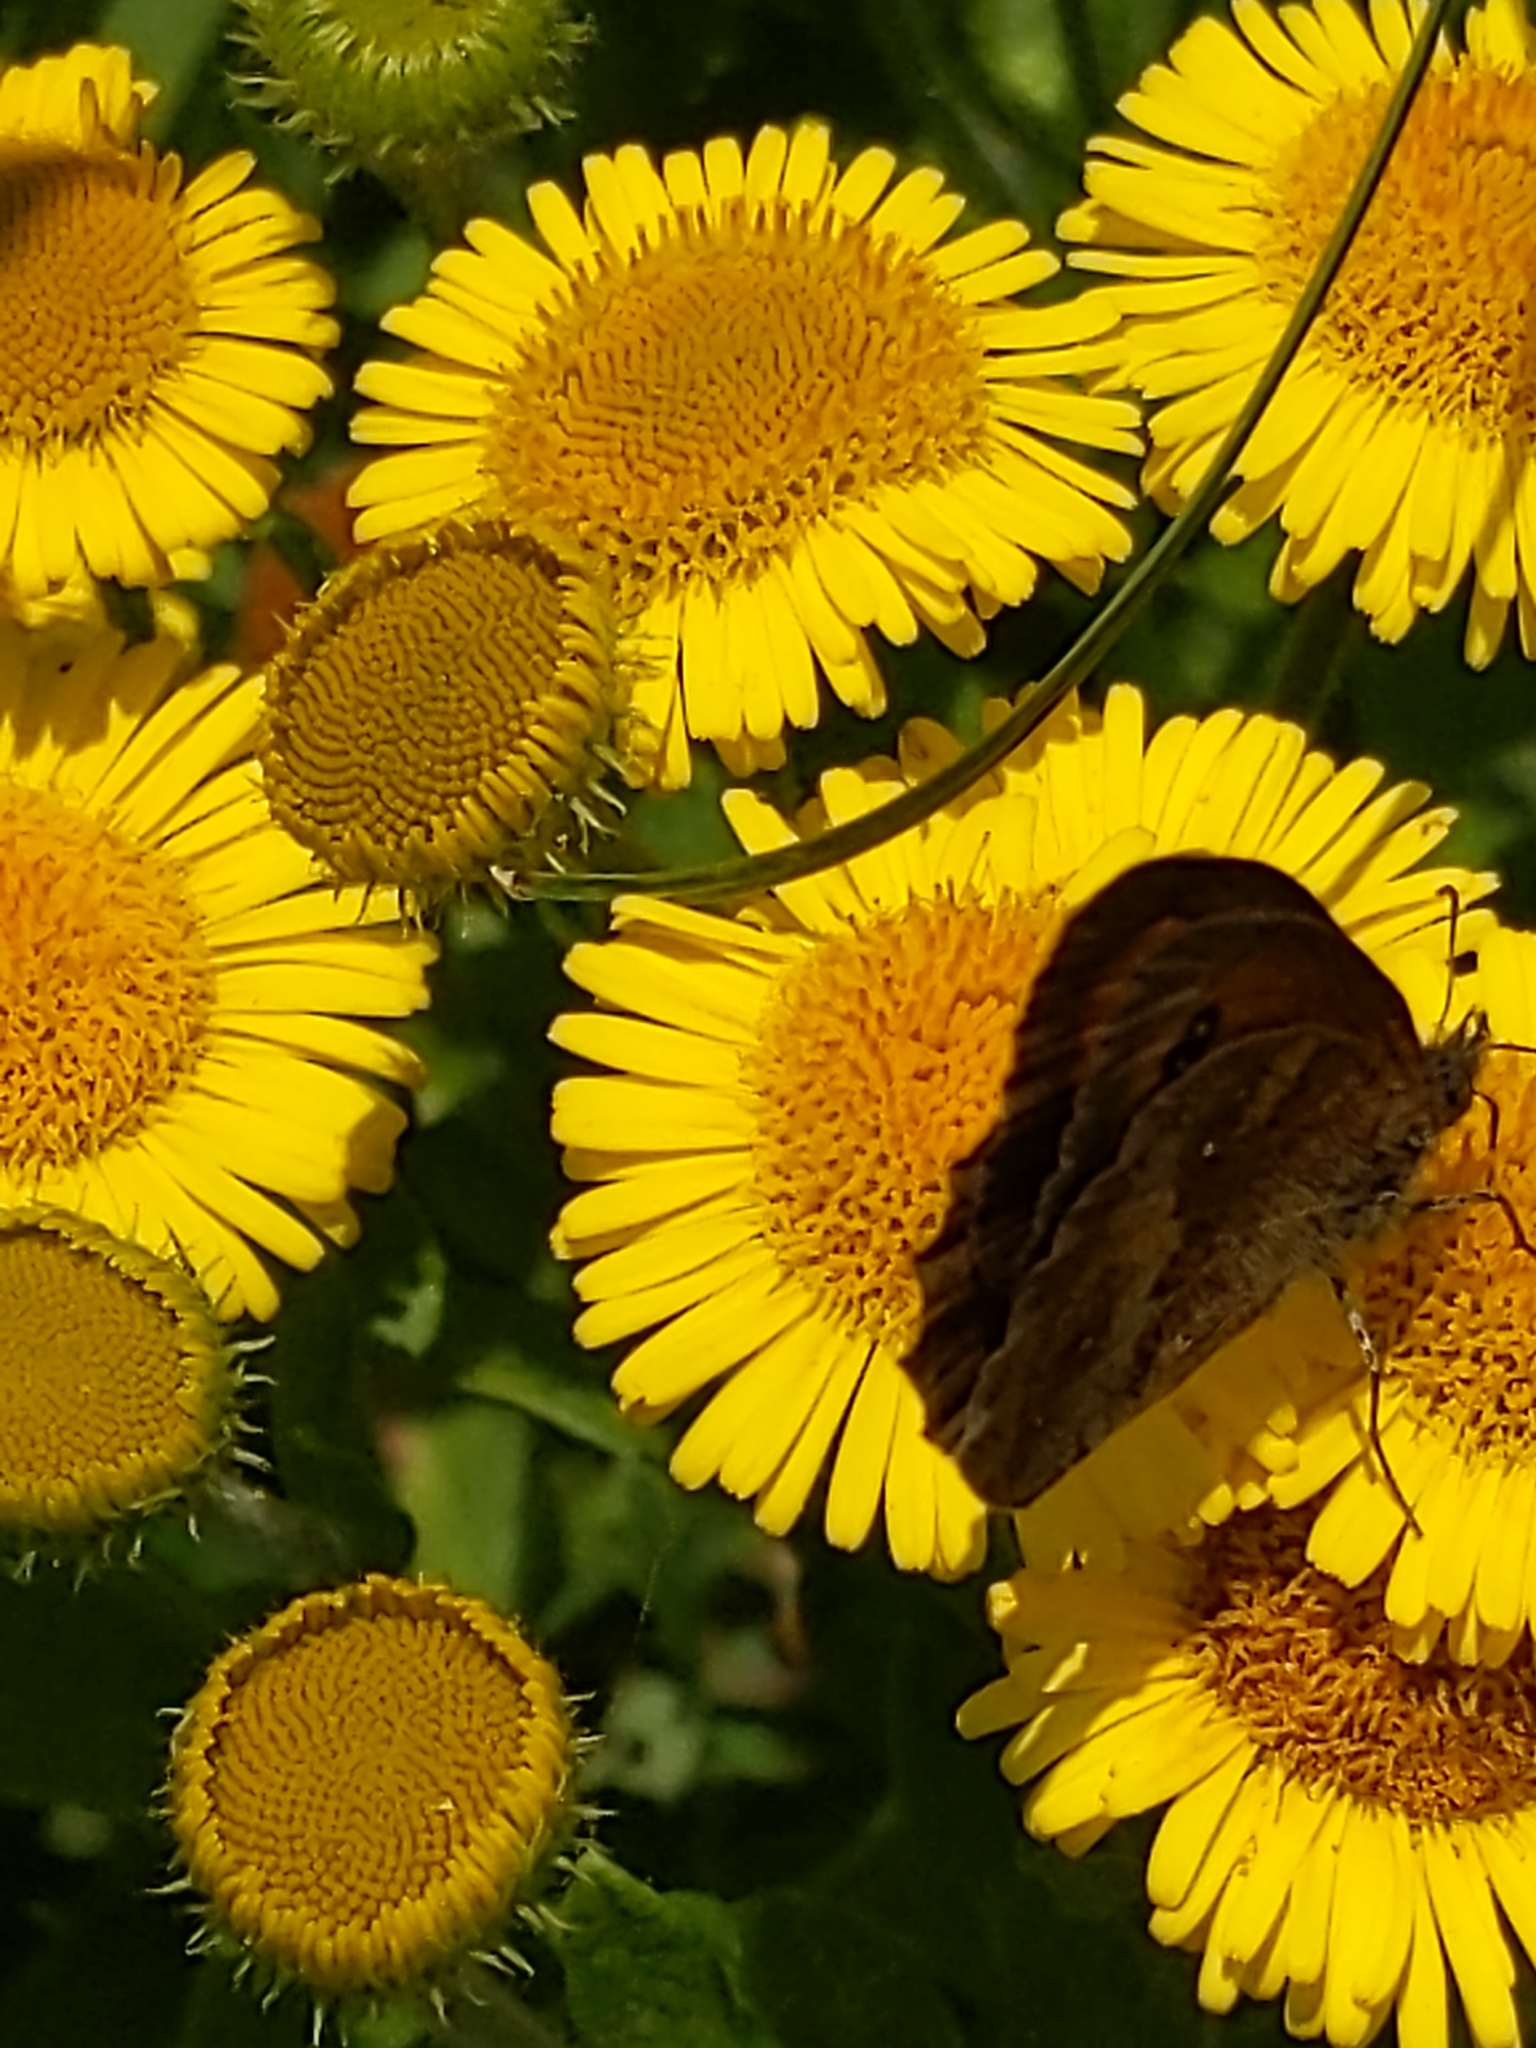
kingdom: Animalia
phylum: Arthropoda
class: Insecta
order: Lepidoptera
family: Nymphalidae
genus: Pyronia
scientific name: Pyronia tithonus
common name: Gatekeeper
